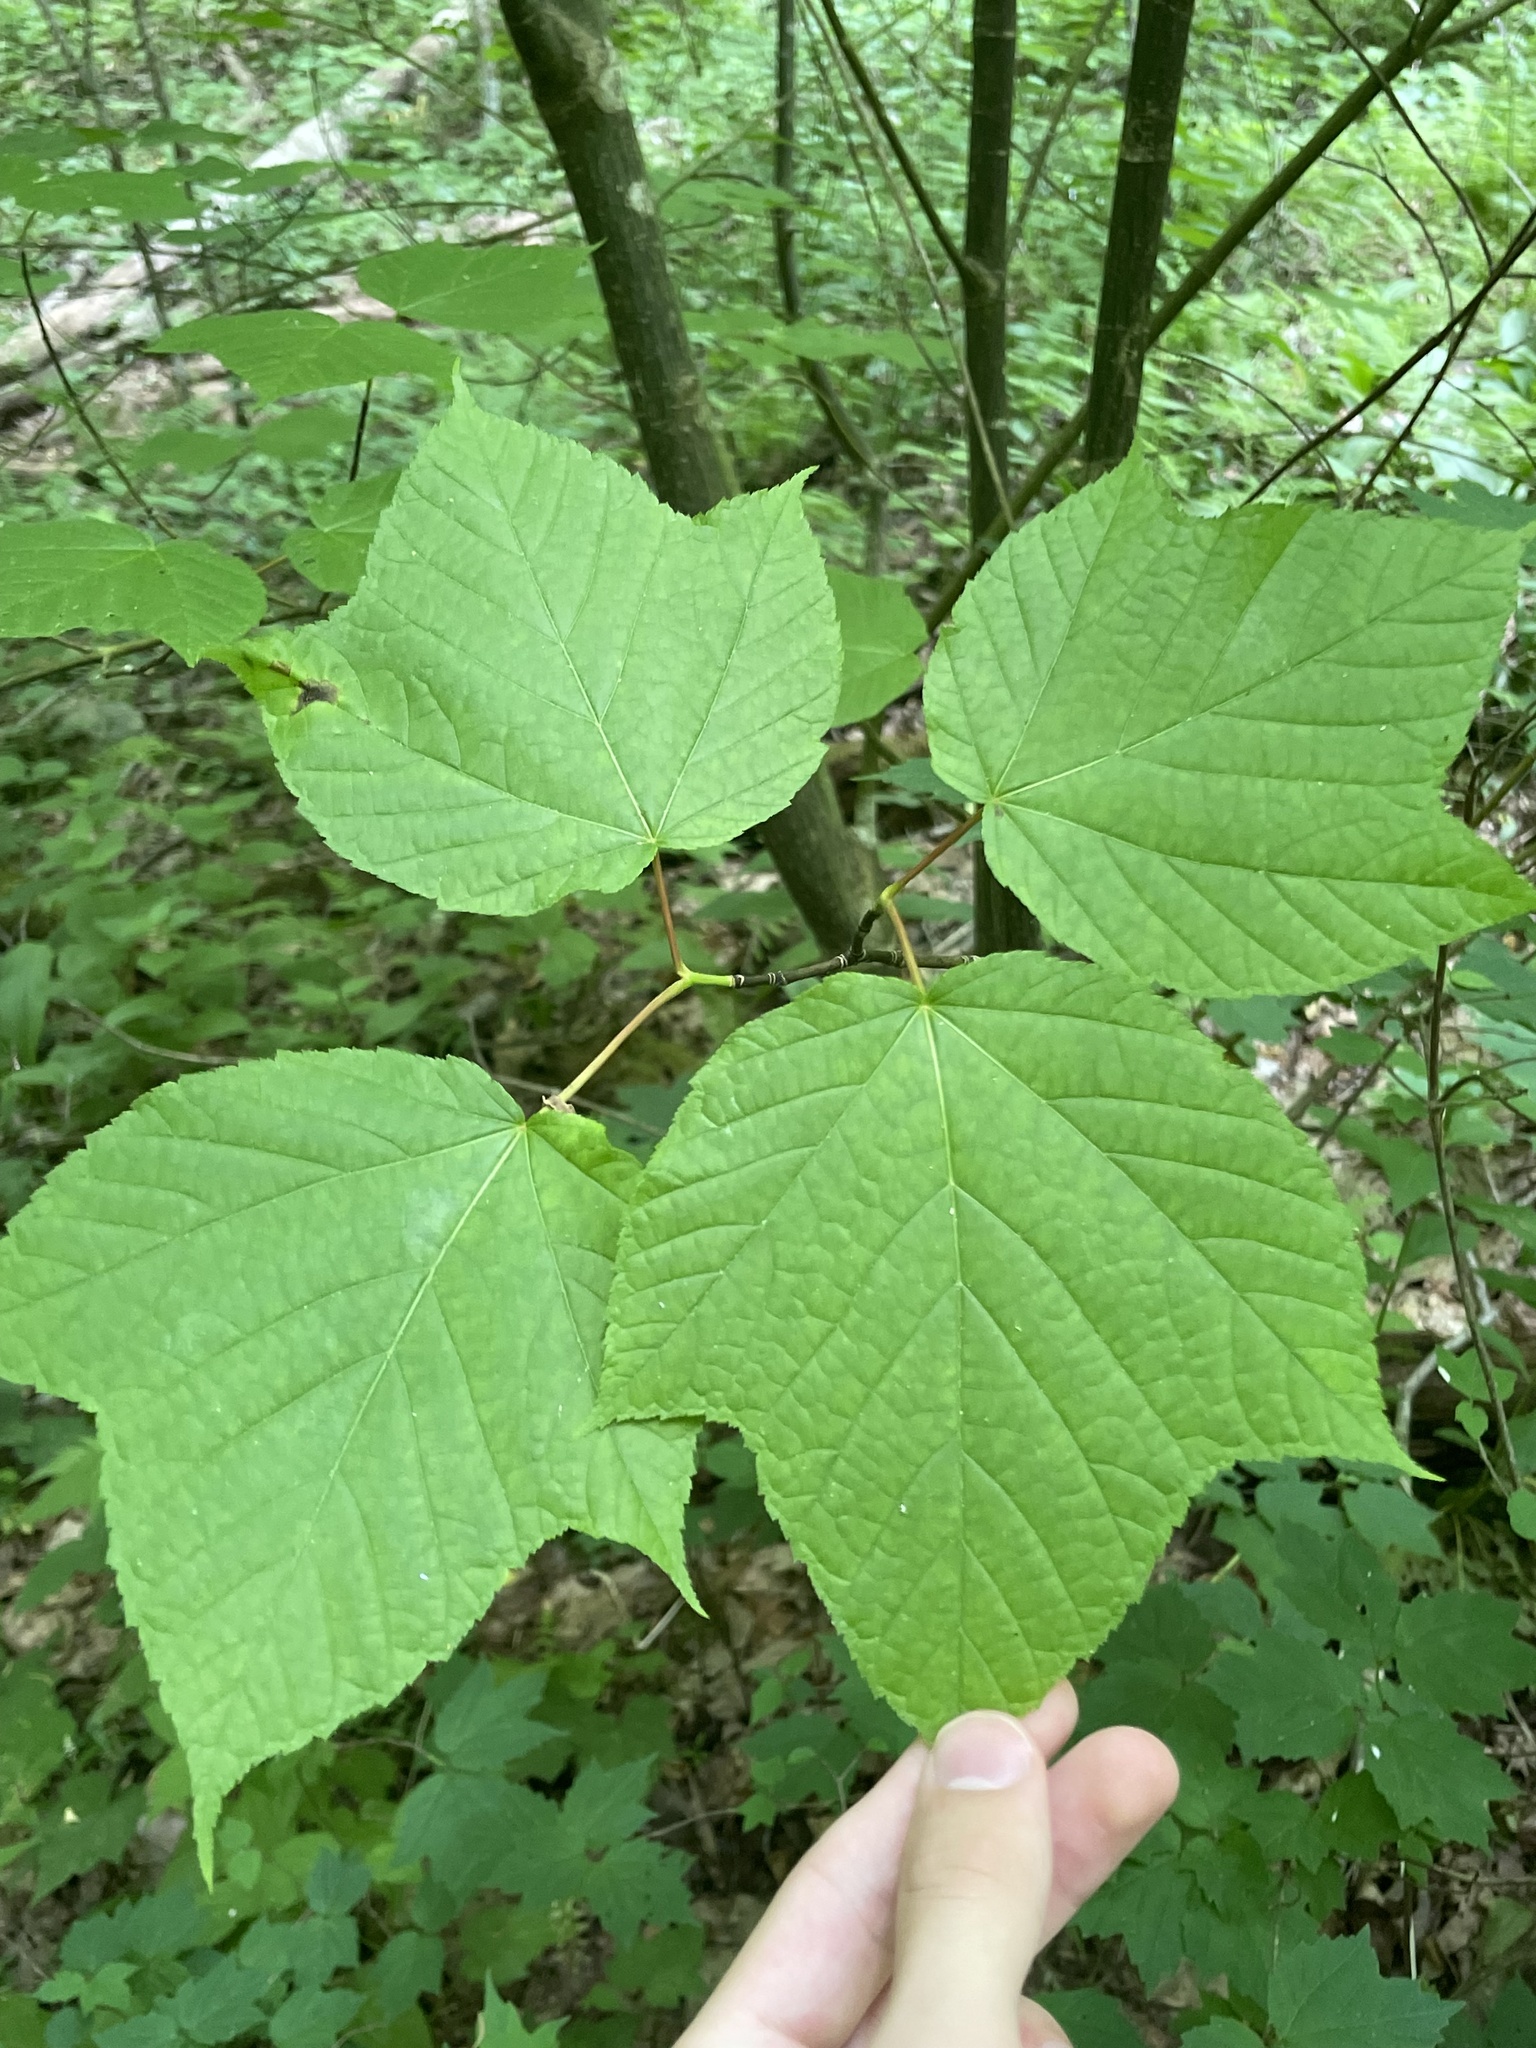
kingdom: Plantae
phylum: Tracheophyta
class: Magnoliopsida
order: Sapindales
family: Sapindaceae
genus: Acer
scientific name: Acer pensylvanicum
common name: Moosewood
